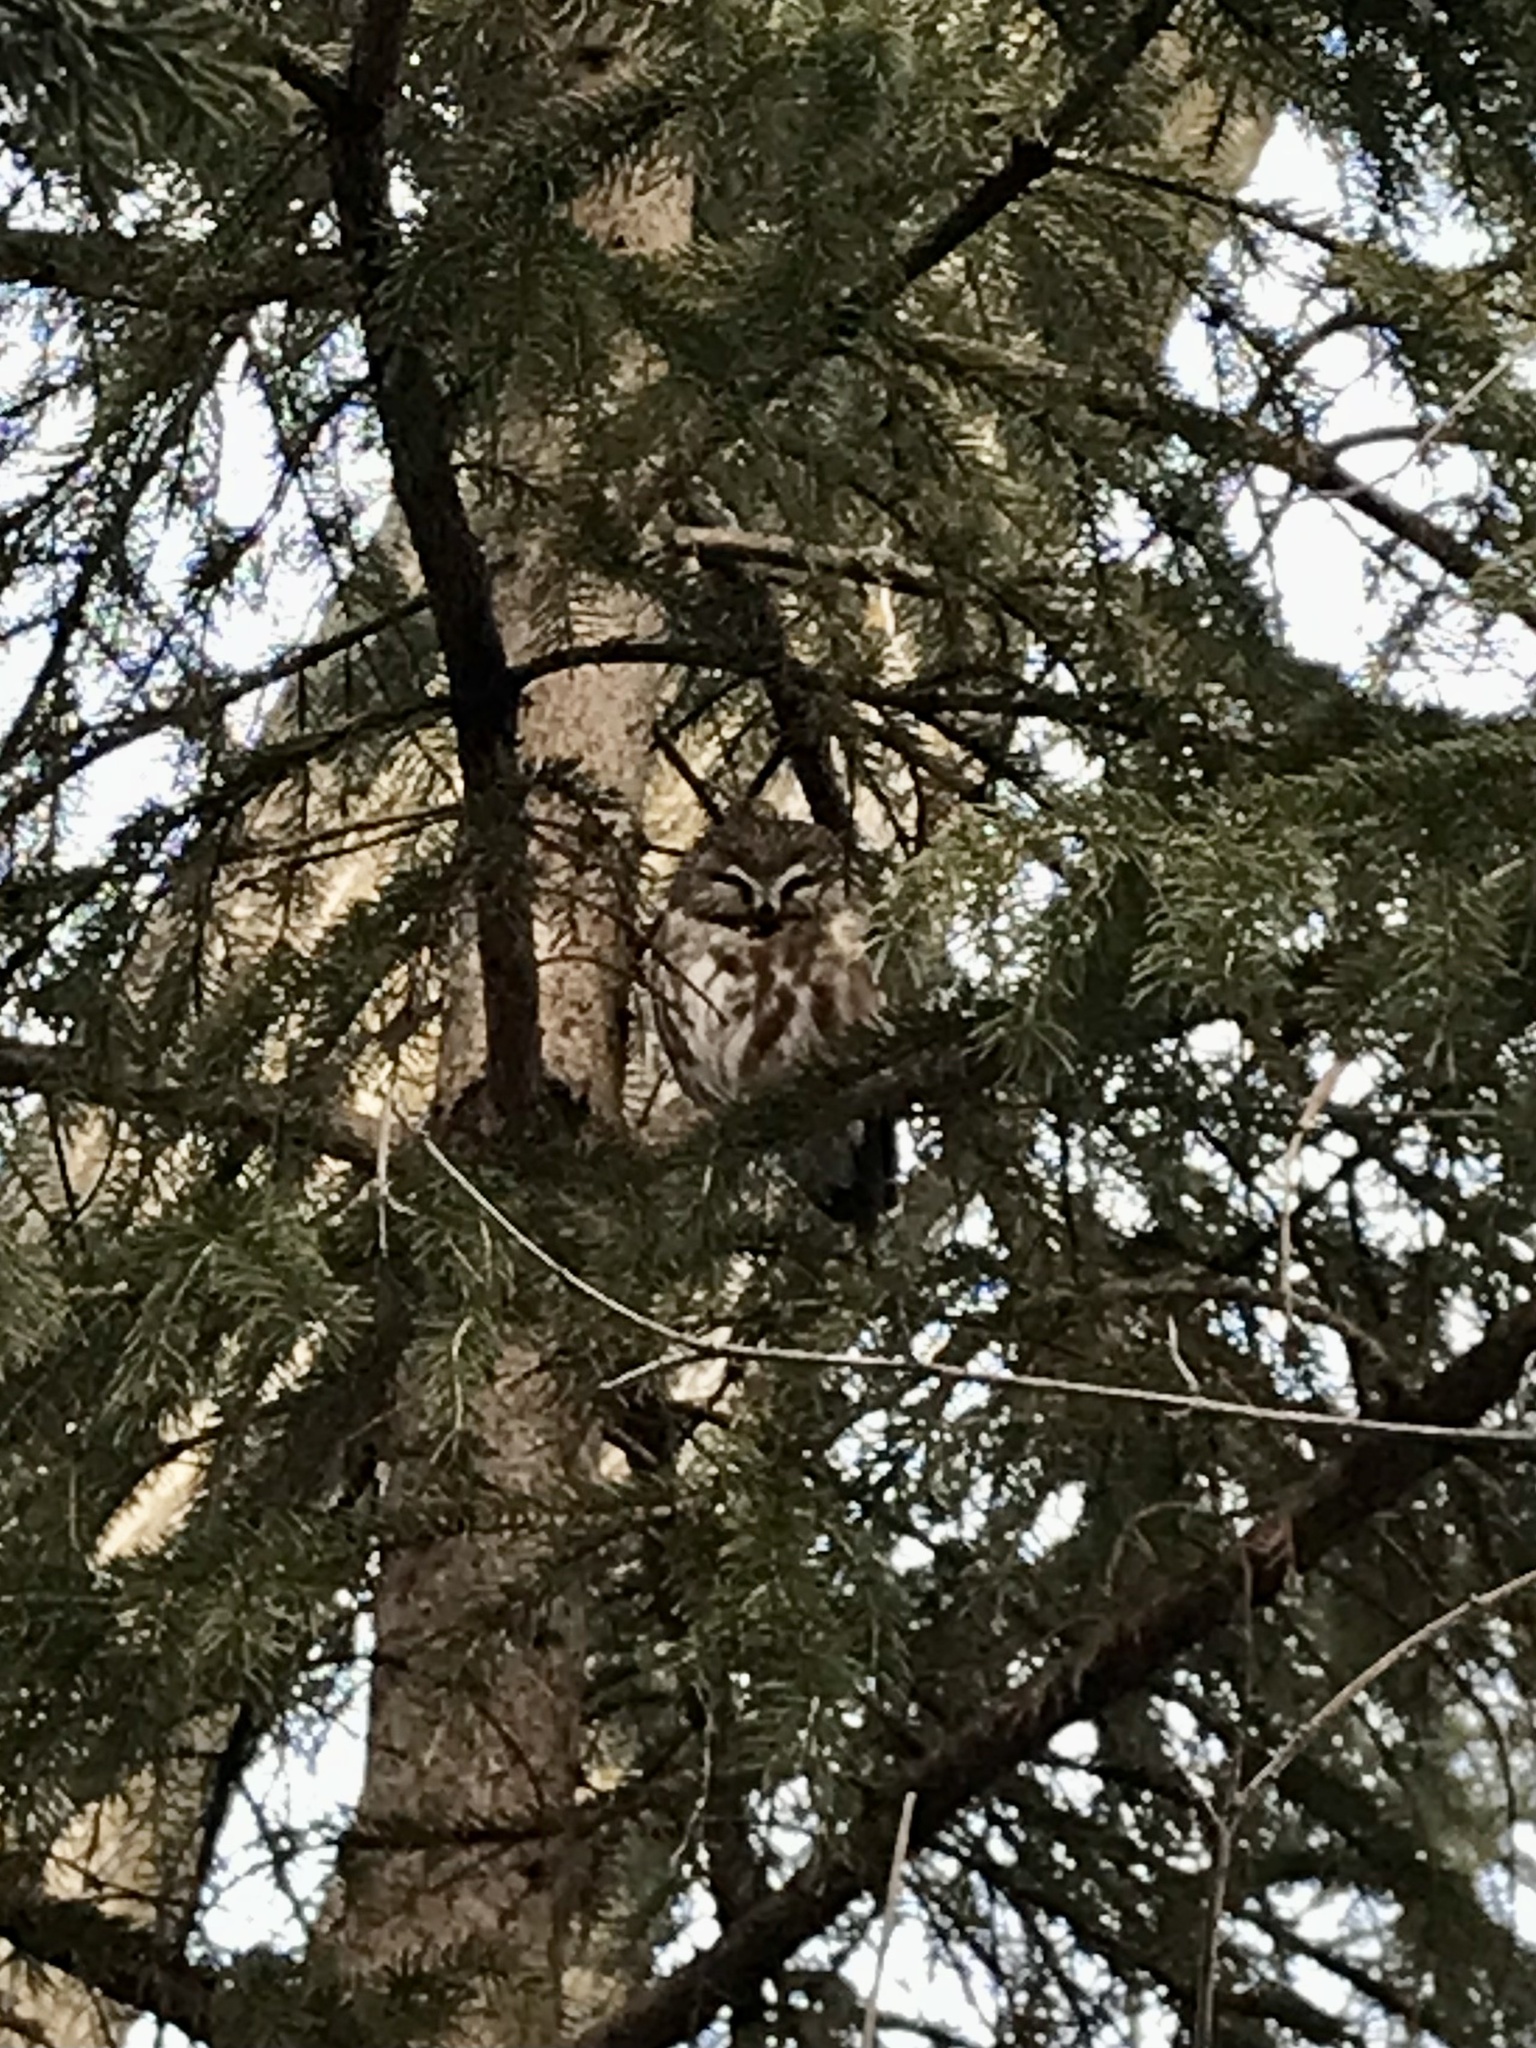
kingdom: Animalia
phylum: Chordata
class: Aves
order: Strigiformes
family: Strigidae
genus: Aegolius
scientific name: Aegolius acadicus
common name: Northern saw-whet owl
